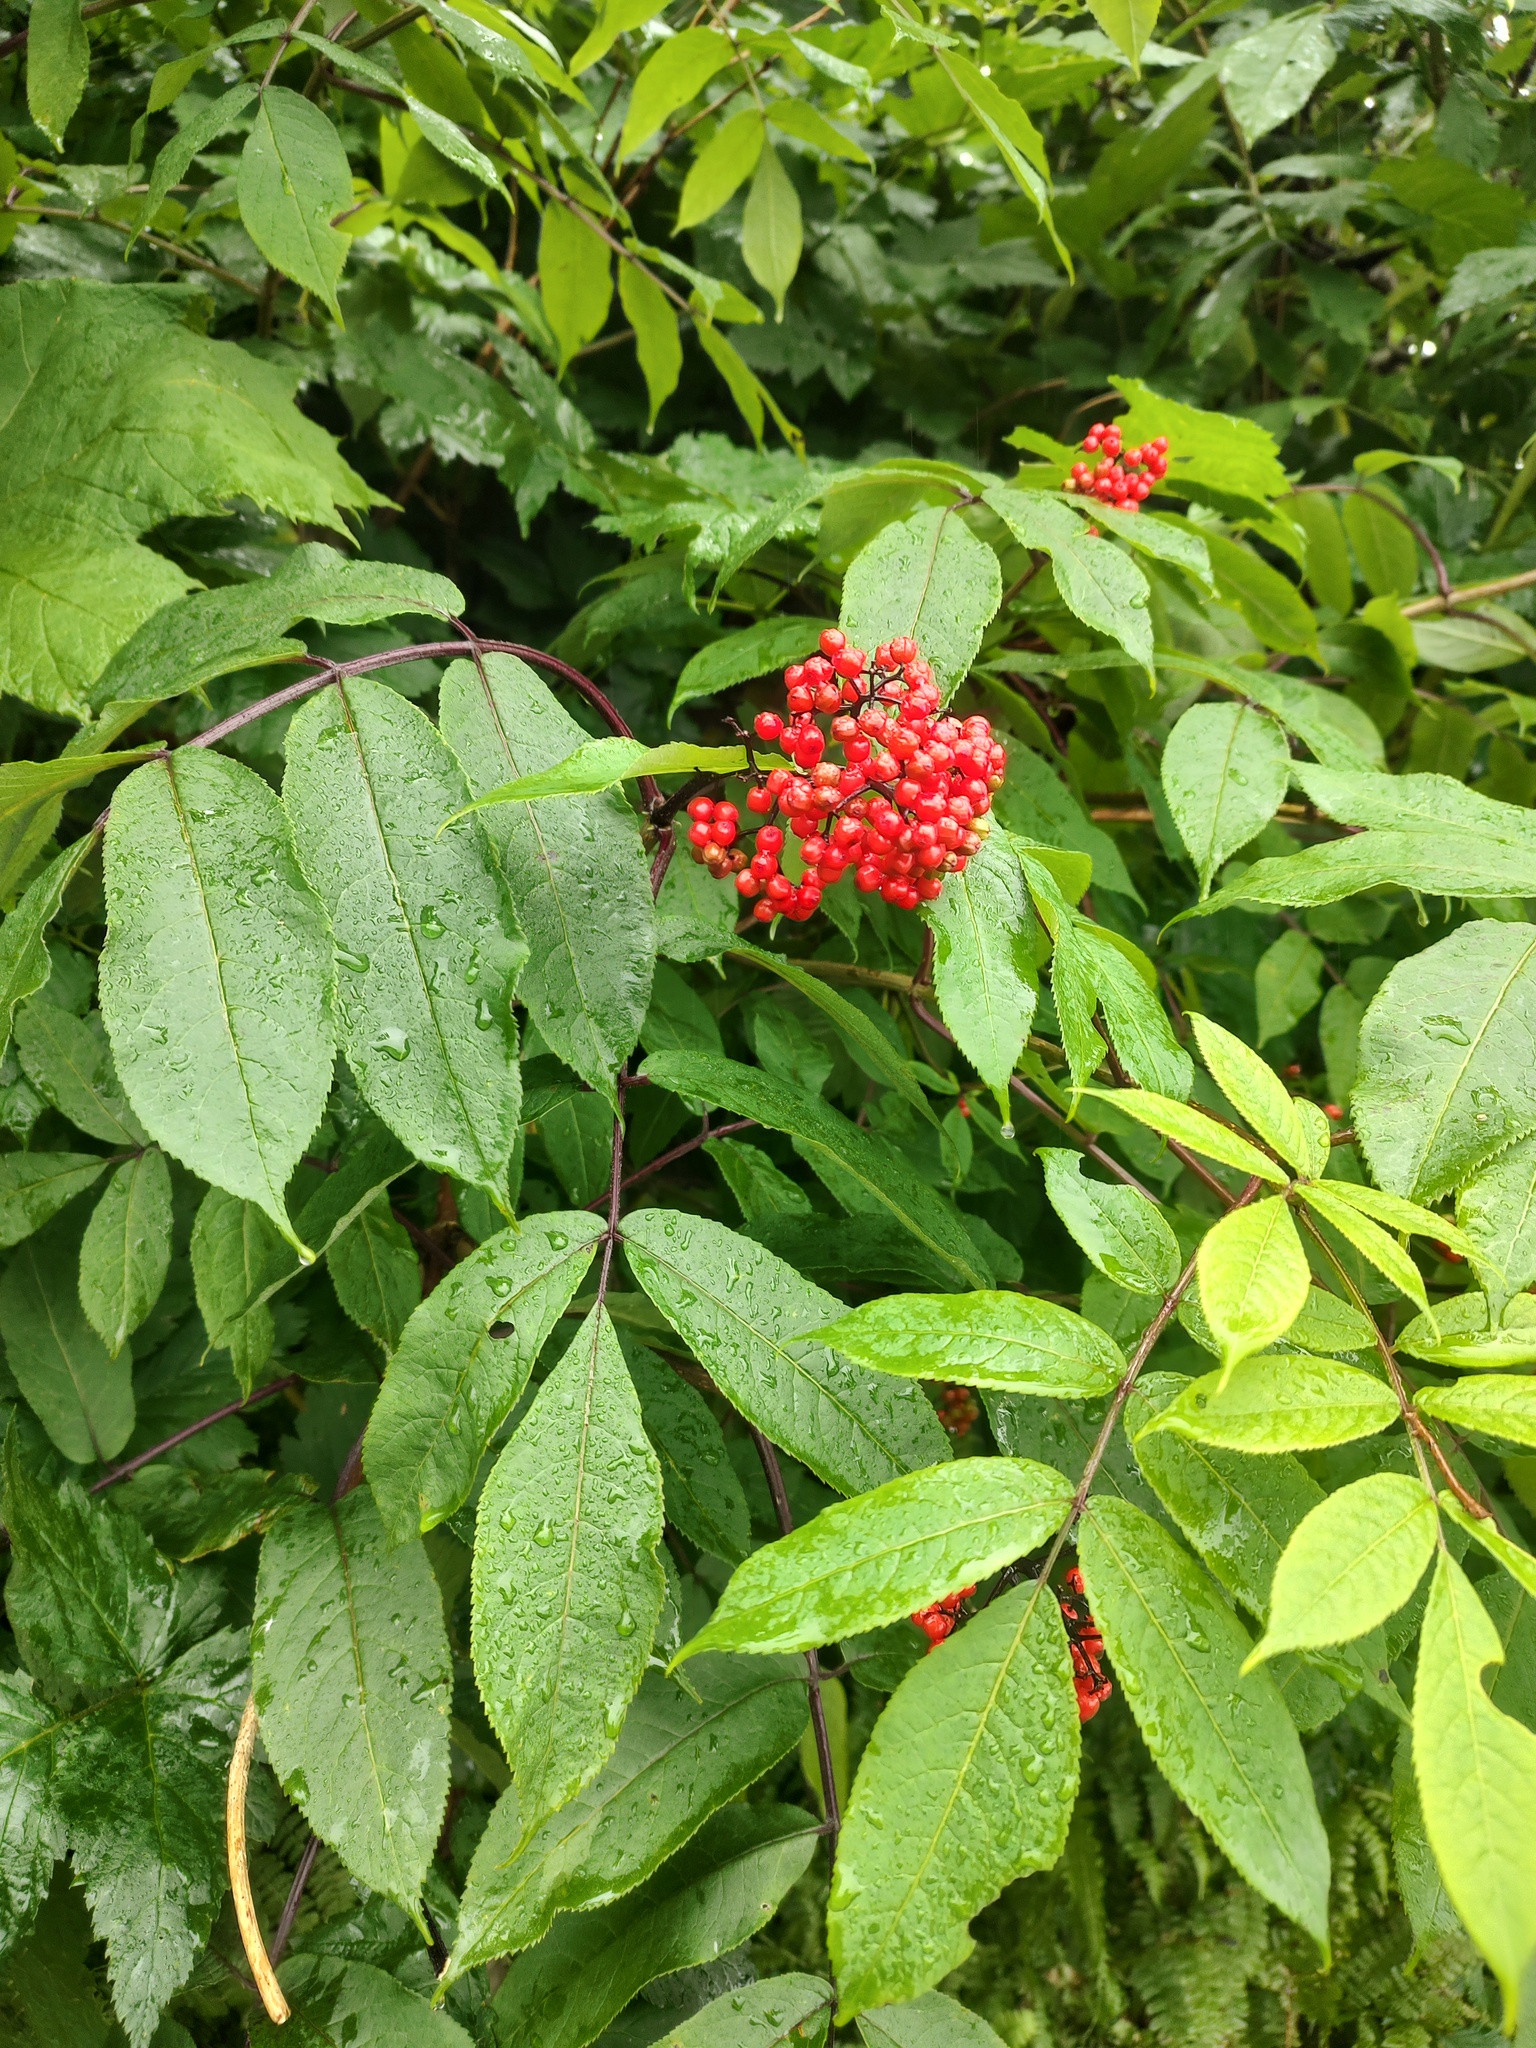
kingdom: Plantae
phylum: Tracheophyta
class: Magnoliopsida
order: Dipsacales
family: Viburnaceae
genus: Sambucus
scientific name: Sambucus racemosa
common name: Red-berried elder
